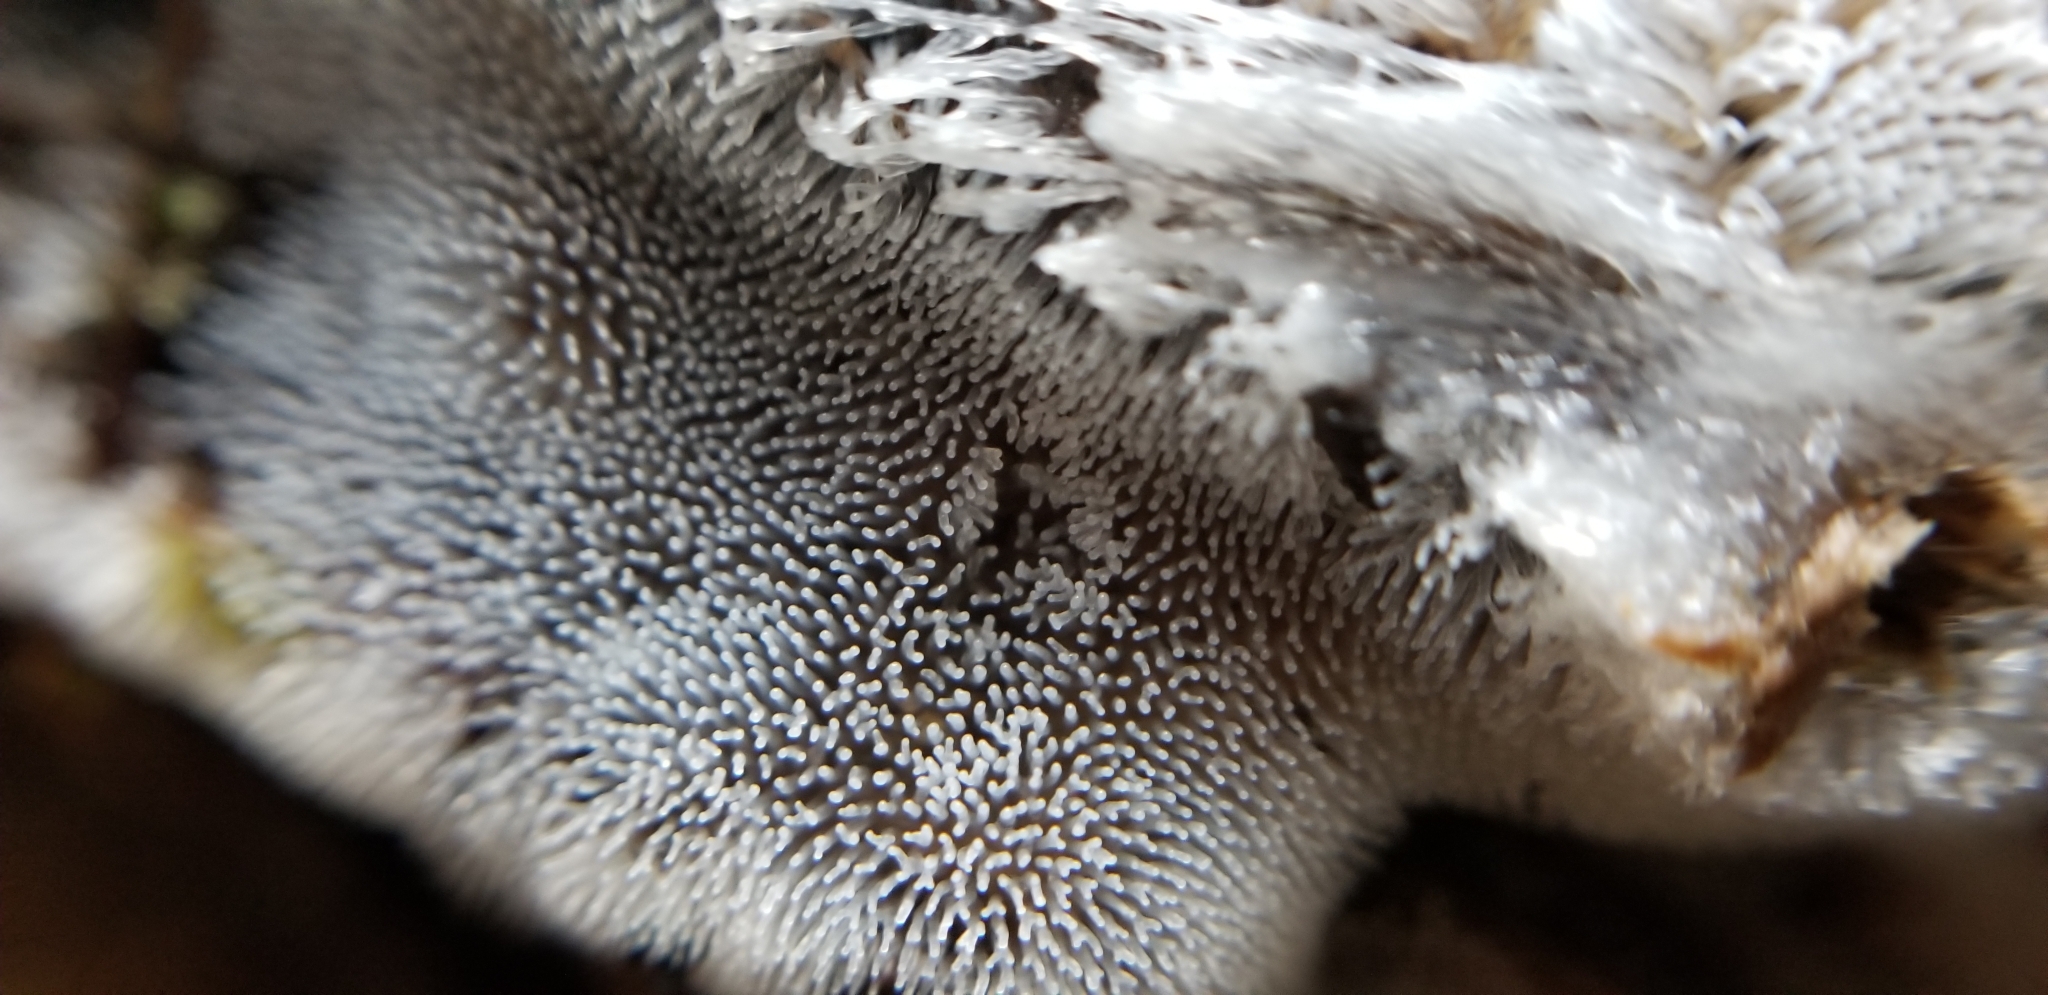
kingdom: Protozoa
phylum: Mycetozoa
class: Protosteliomycetes
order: Ceratiomyxales
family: Ceratiomyxaceae
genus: Ceratiomyxa
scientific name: Ceratiomyxa fruticulosa
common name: Honeycomb coral slime mold
